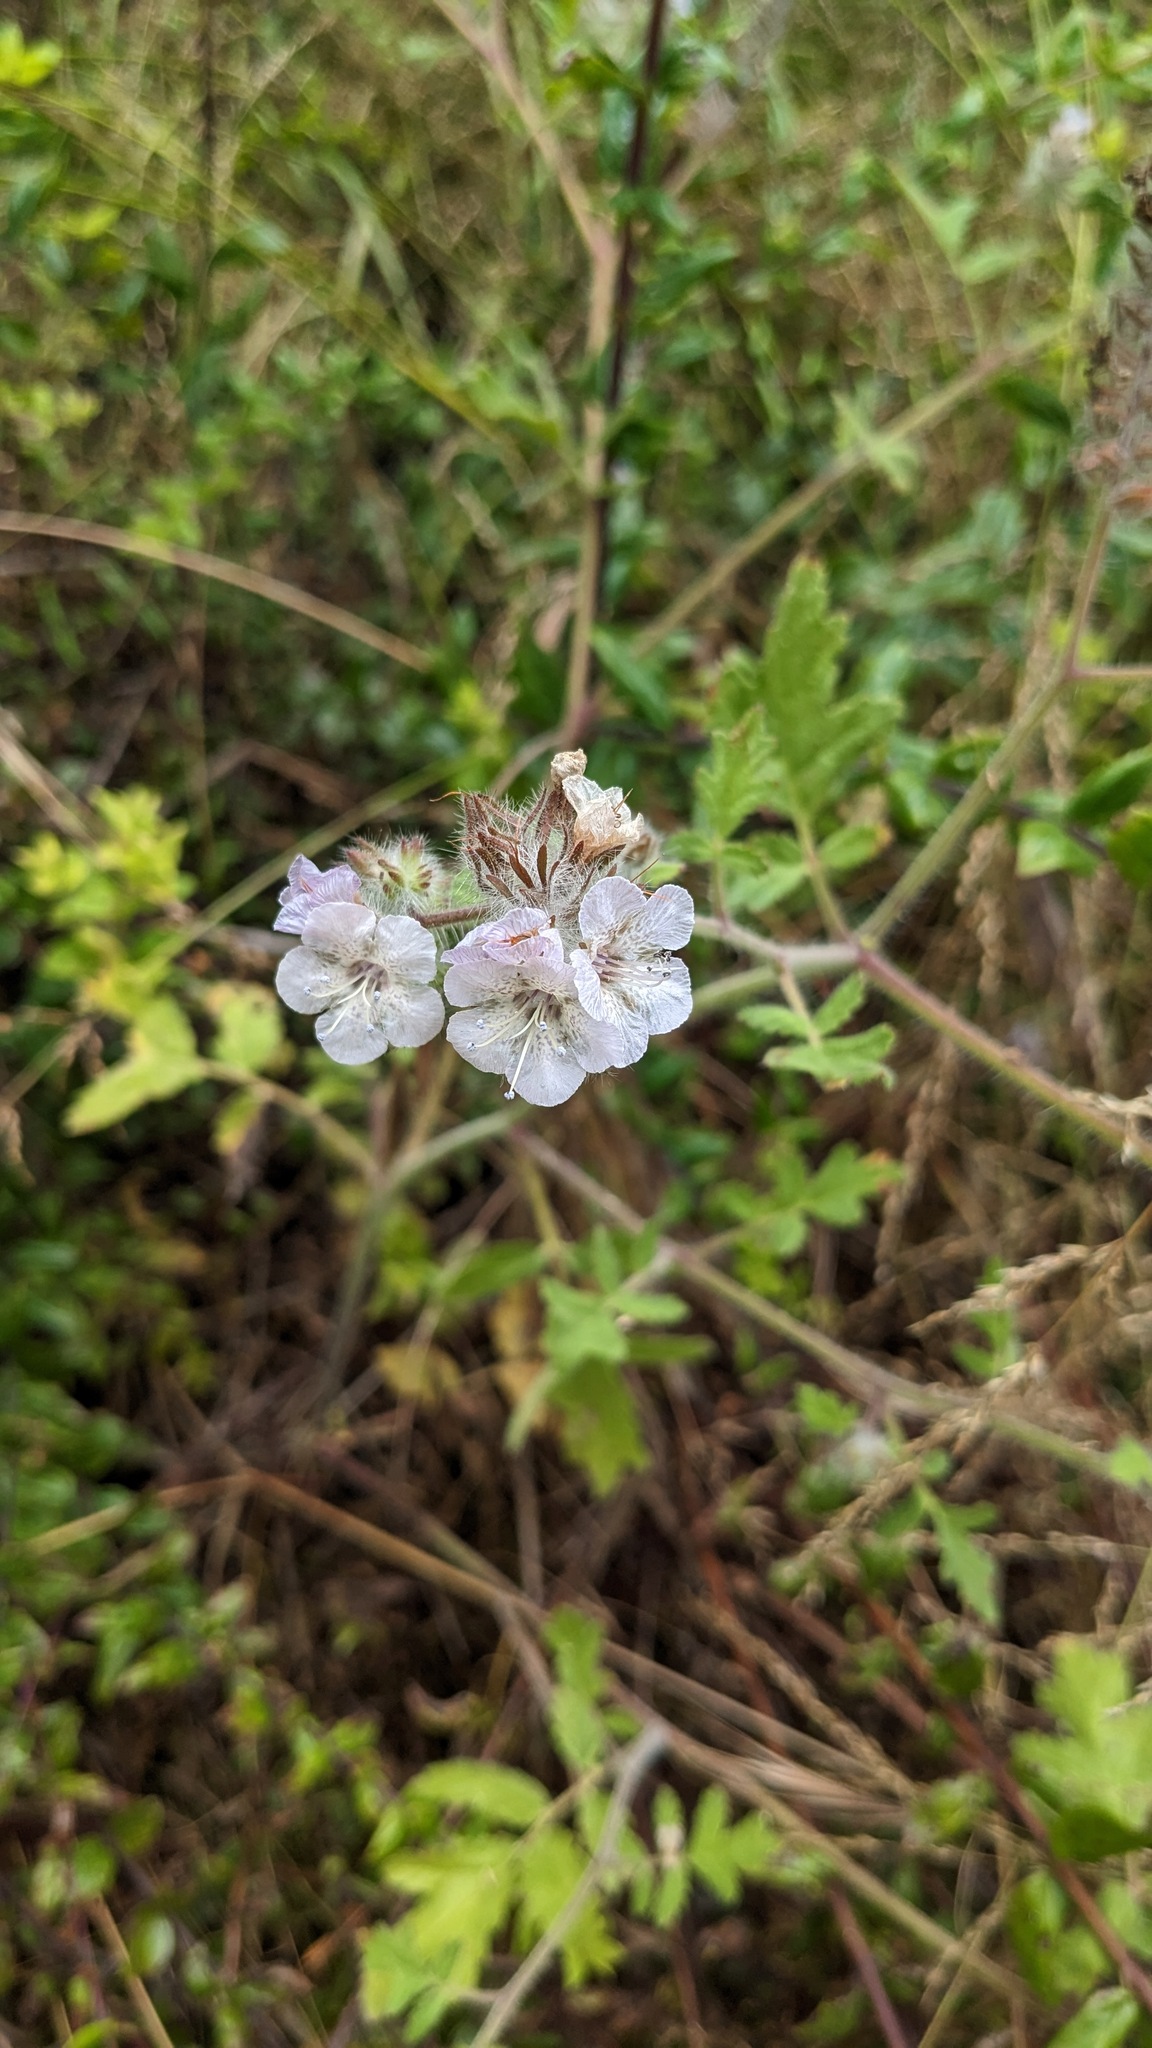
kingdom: Plantae
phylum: Tracheophyta
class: Magnoliopsida
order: Boraginales
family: Hydrophyllaceae
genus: Phacelia
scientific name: Phacelia cicutaria
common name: Caterpillar phacelia
